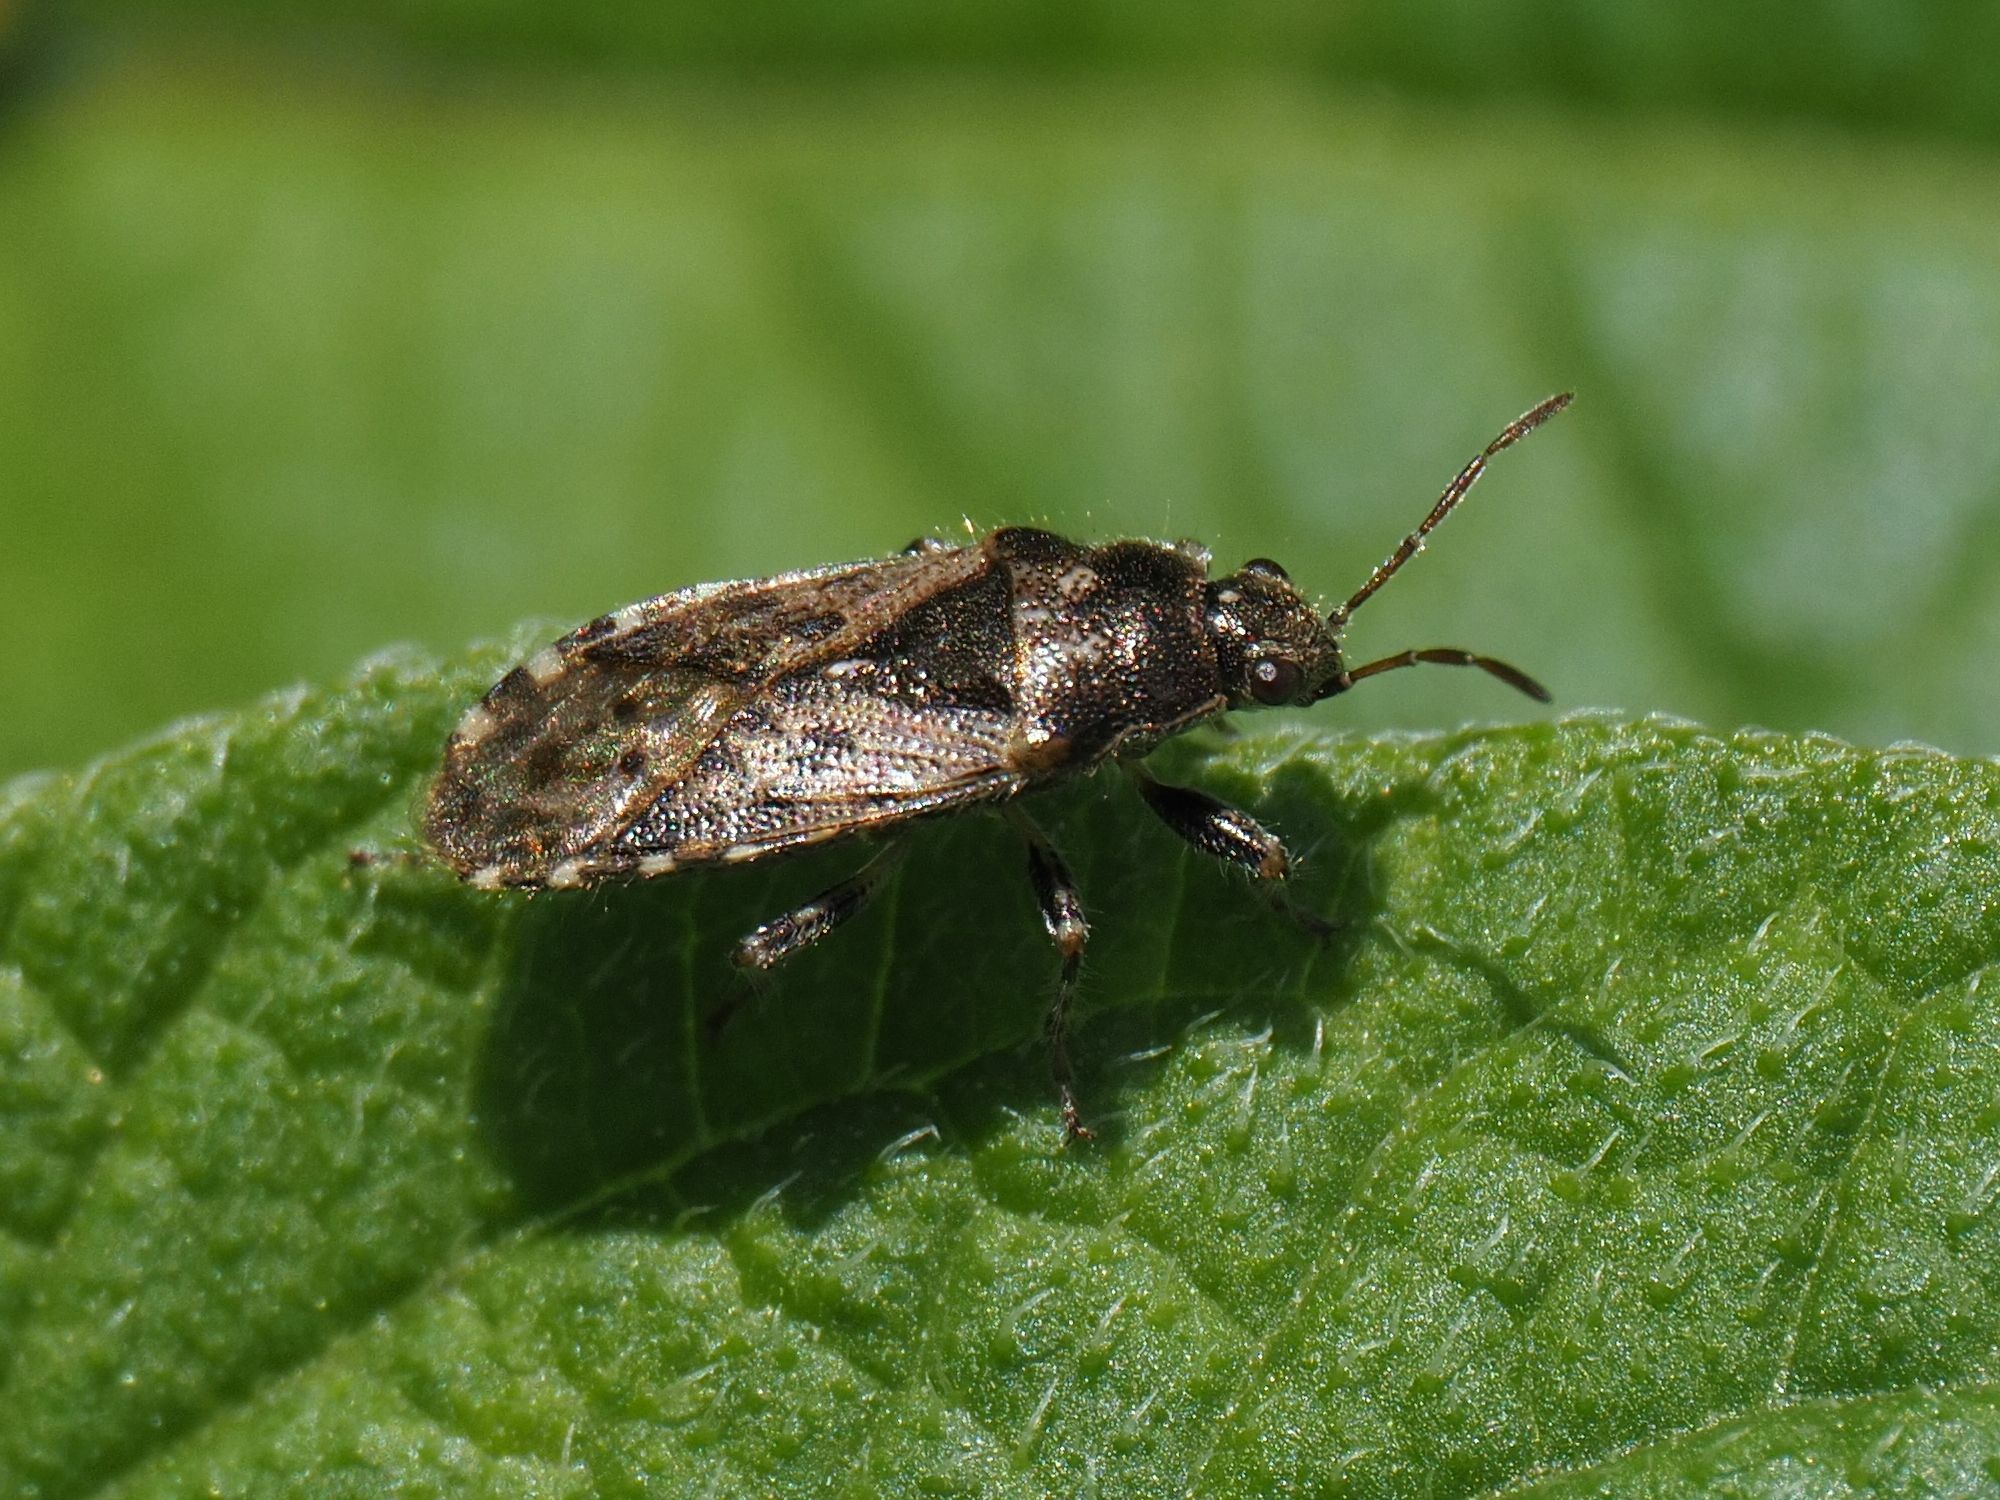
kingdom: Animalia
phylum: Arthropoda
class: Insecta
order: Hemiptera
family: Heterogastridae
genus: Heterogaster
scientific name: Heterogaster urticae
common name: Seed bug
